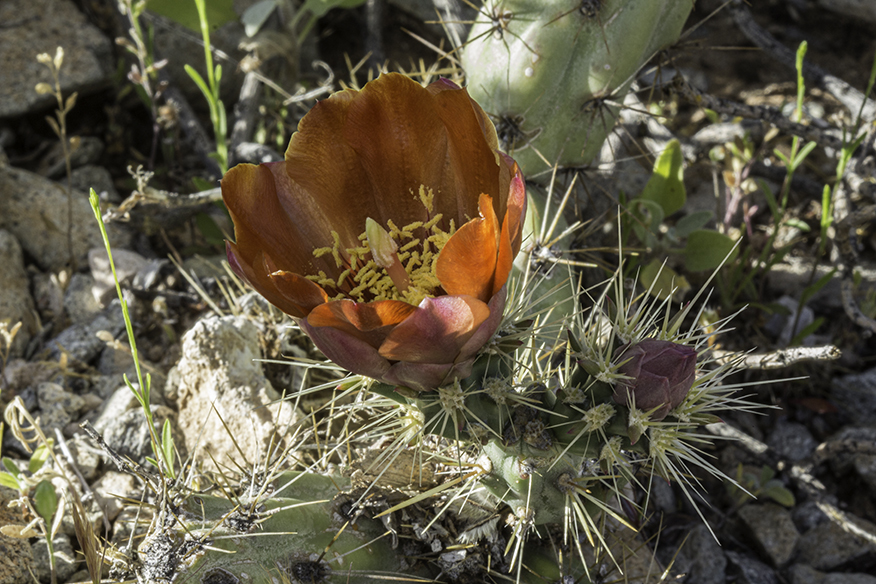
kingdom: Plantae
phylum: Tracheophyta
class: Magnoliopsida
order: Caryophyllales
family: Cactaceae
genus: Cylindropuntia
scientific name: Cylindropuntia acanthocarpa
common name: Buckhorn cholla
